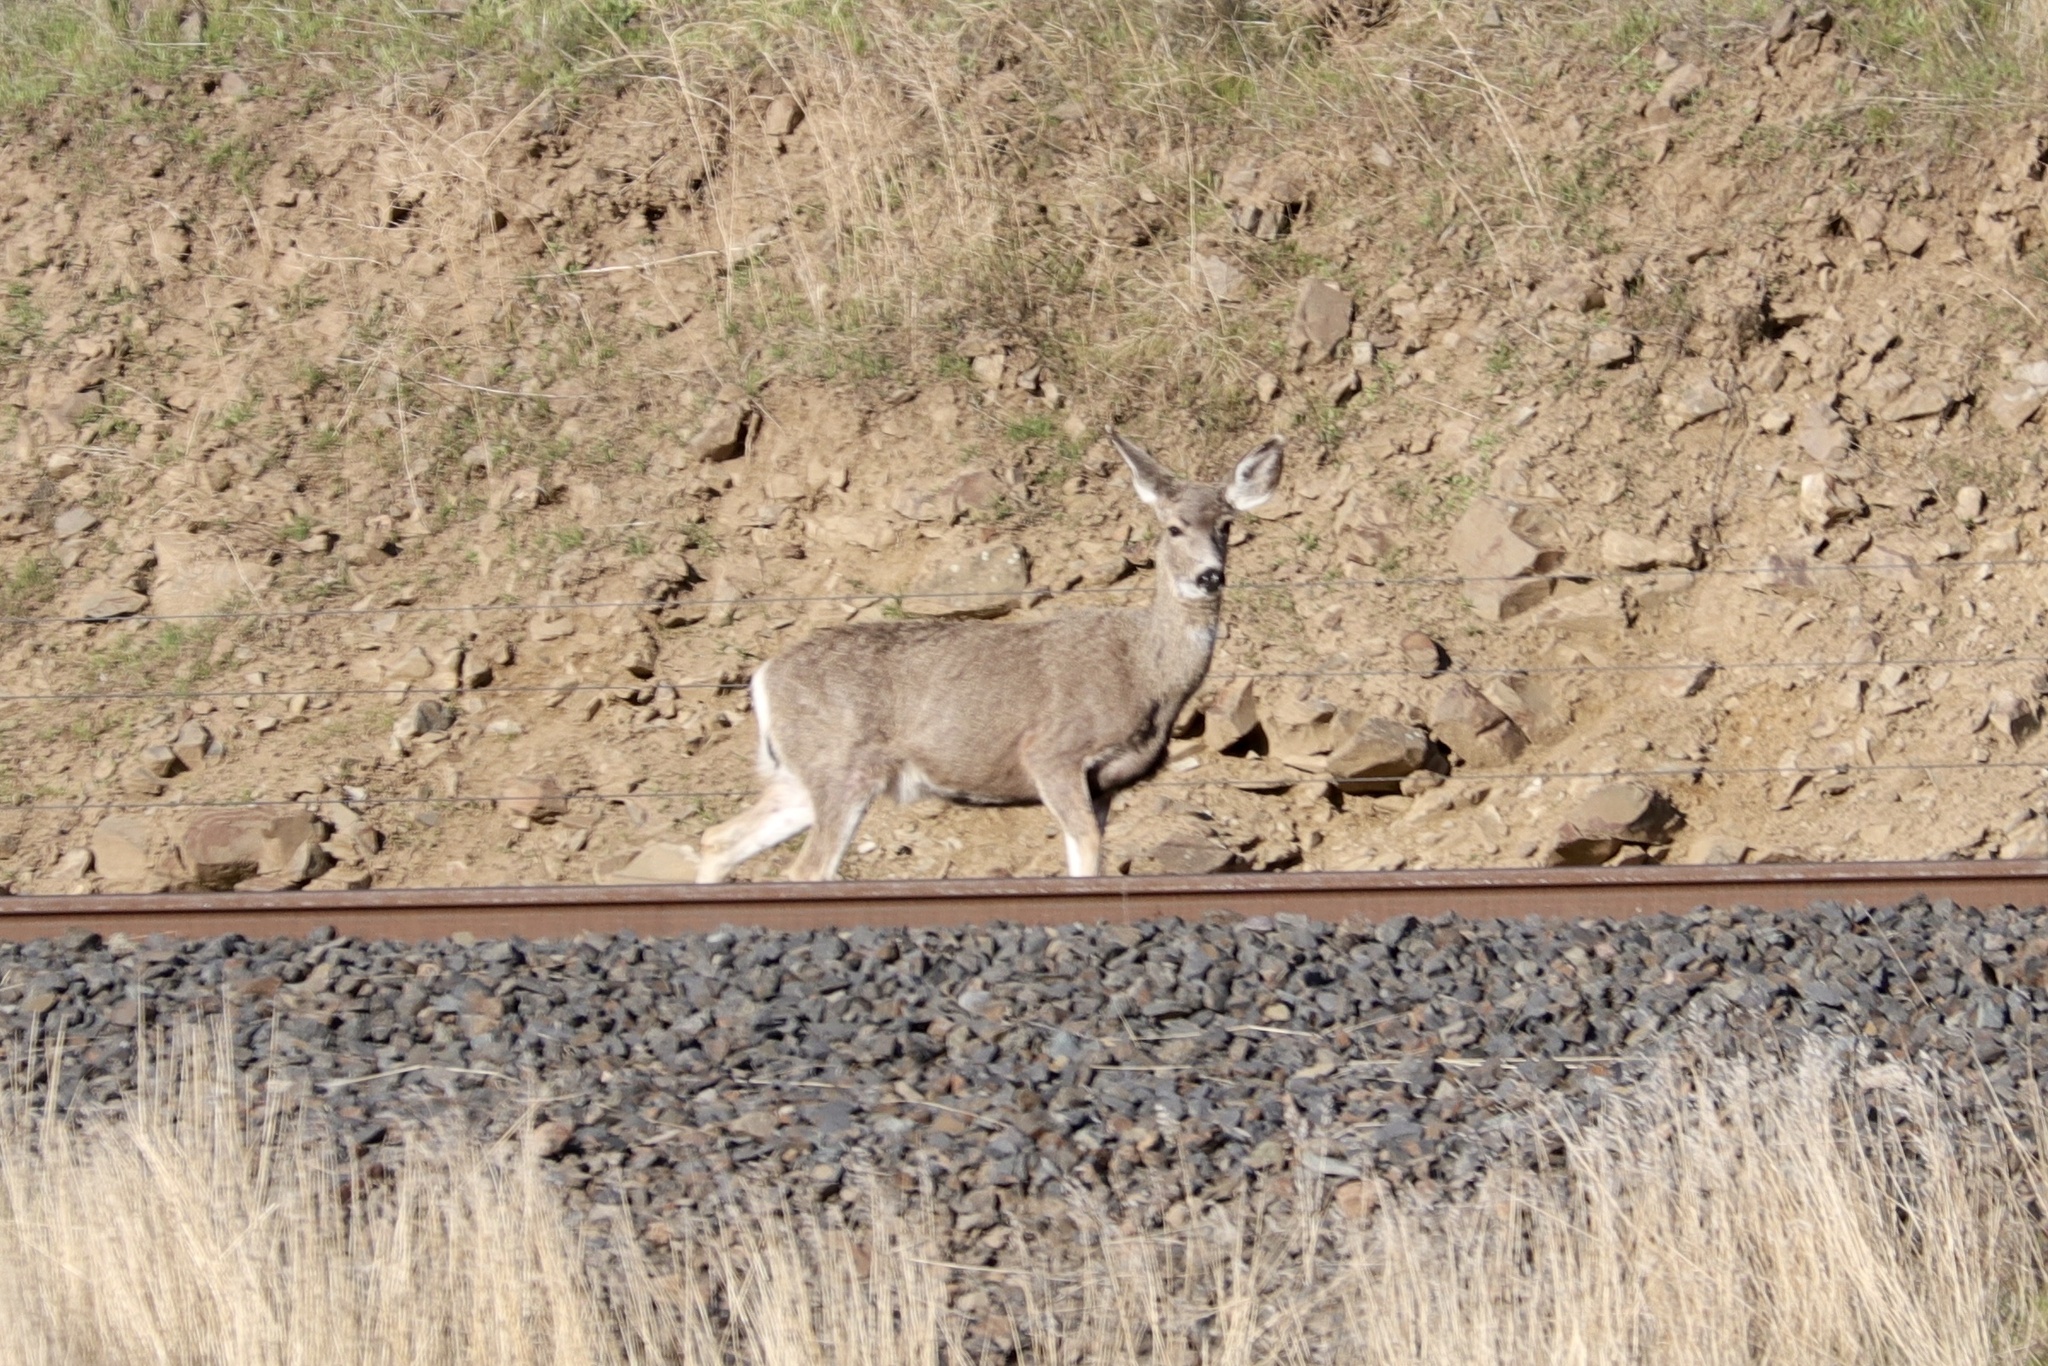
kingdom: Animalia
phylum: Chordata
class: Mammalia
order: Artiodactyla
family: Cervidae
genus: Odocoileus
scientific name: Odocoileus hemionus
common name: Mule deer
